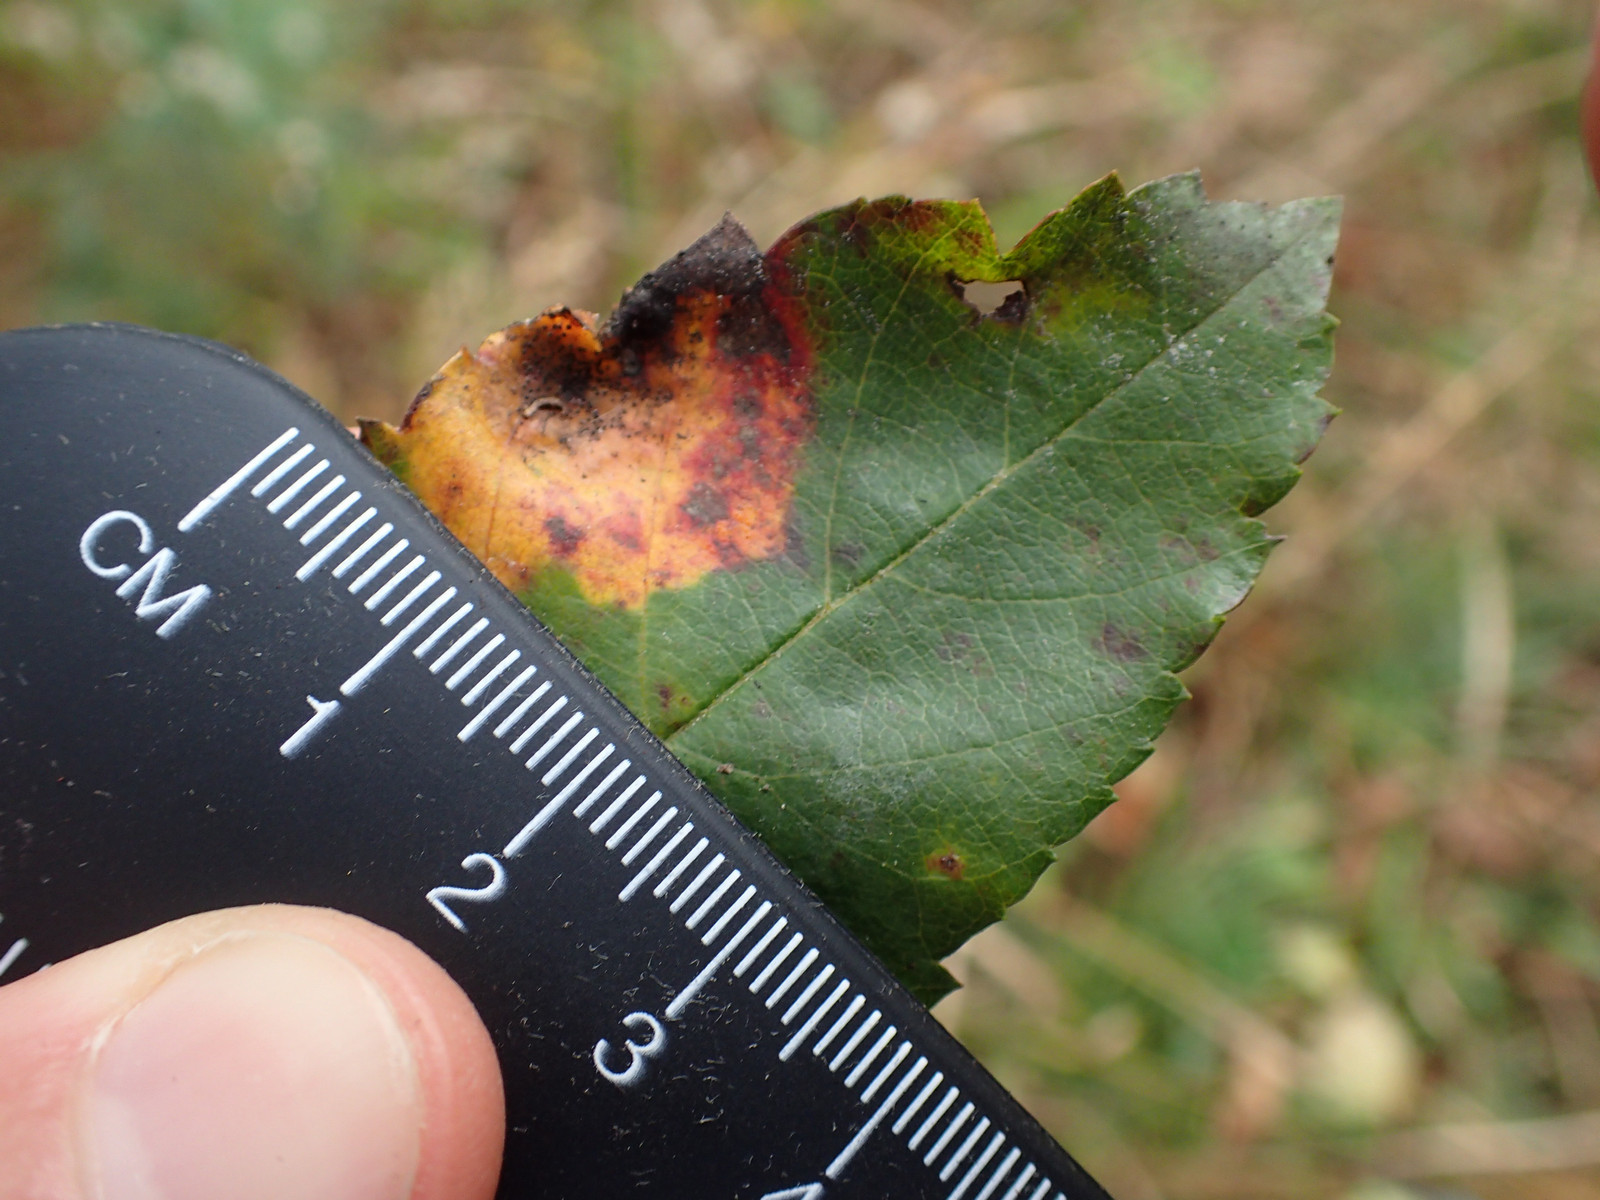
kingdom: Plantae
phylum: Tracheophyta
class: Magnoliopsida
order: Rosales
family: Rosaceae
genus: Malus
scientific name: Malus coronaria
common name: Sweet crab apple
